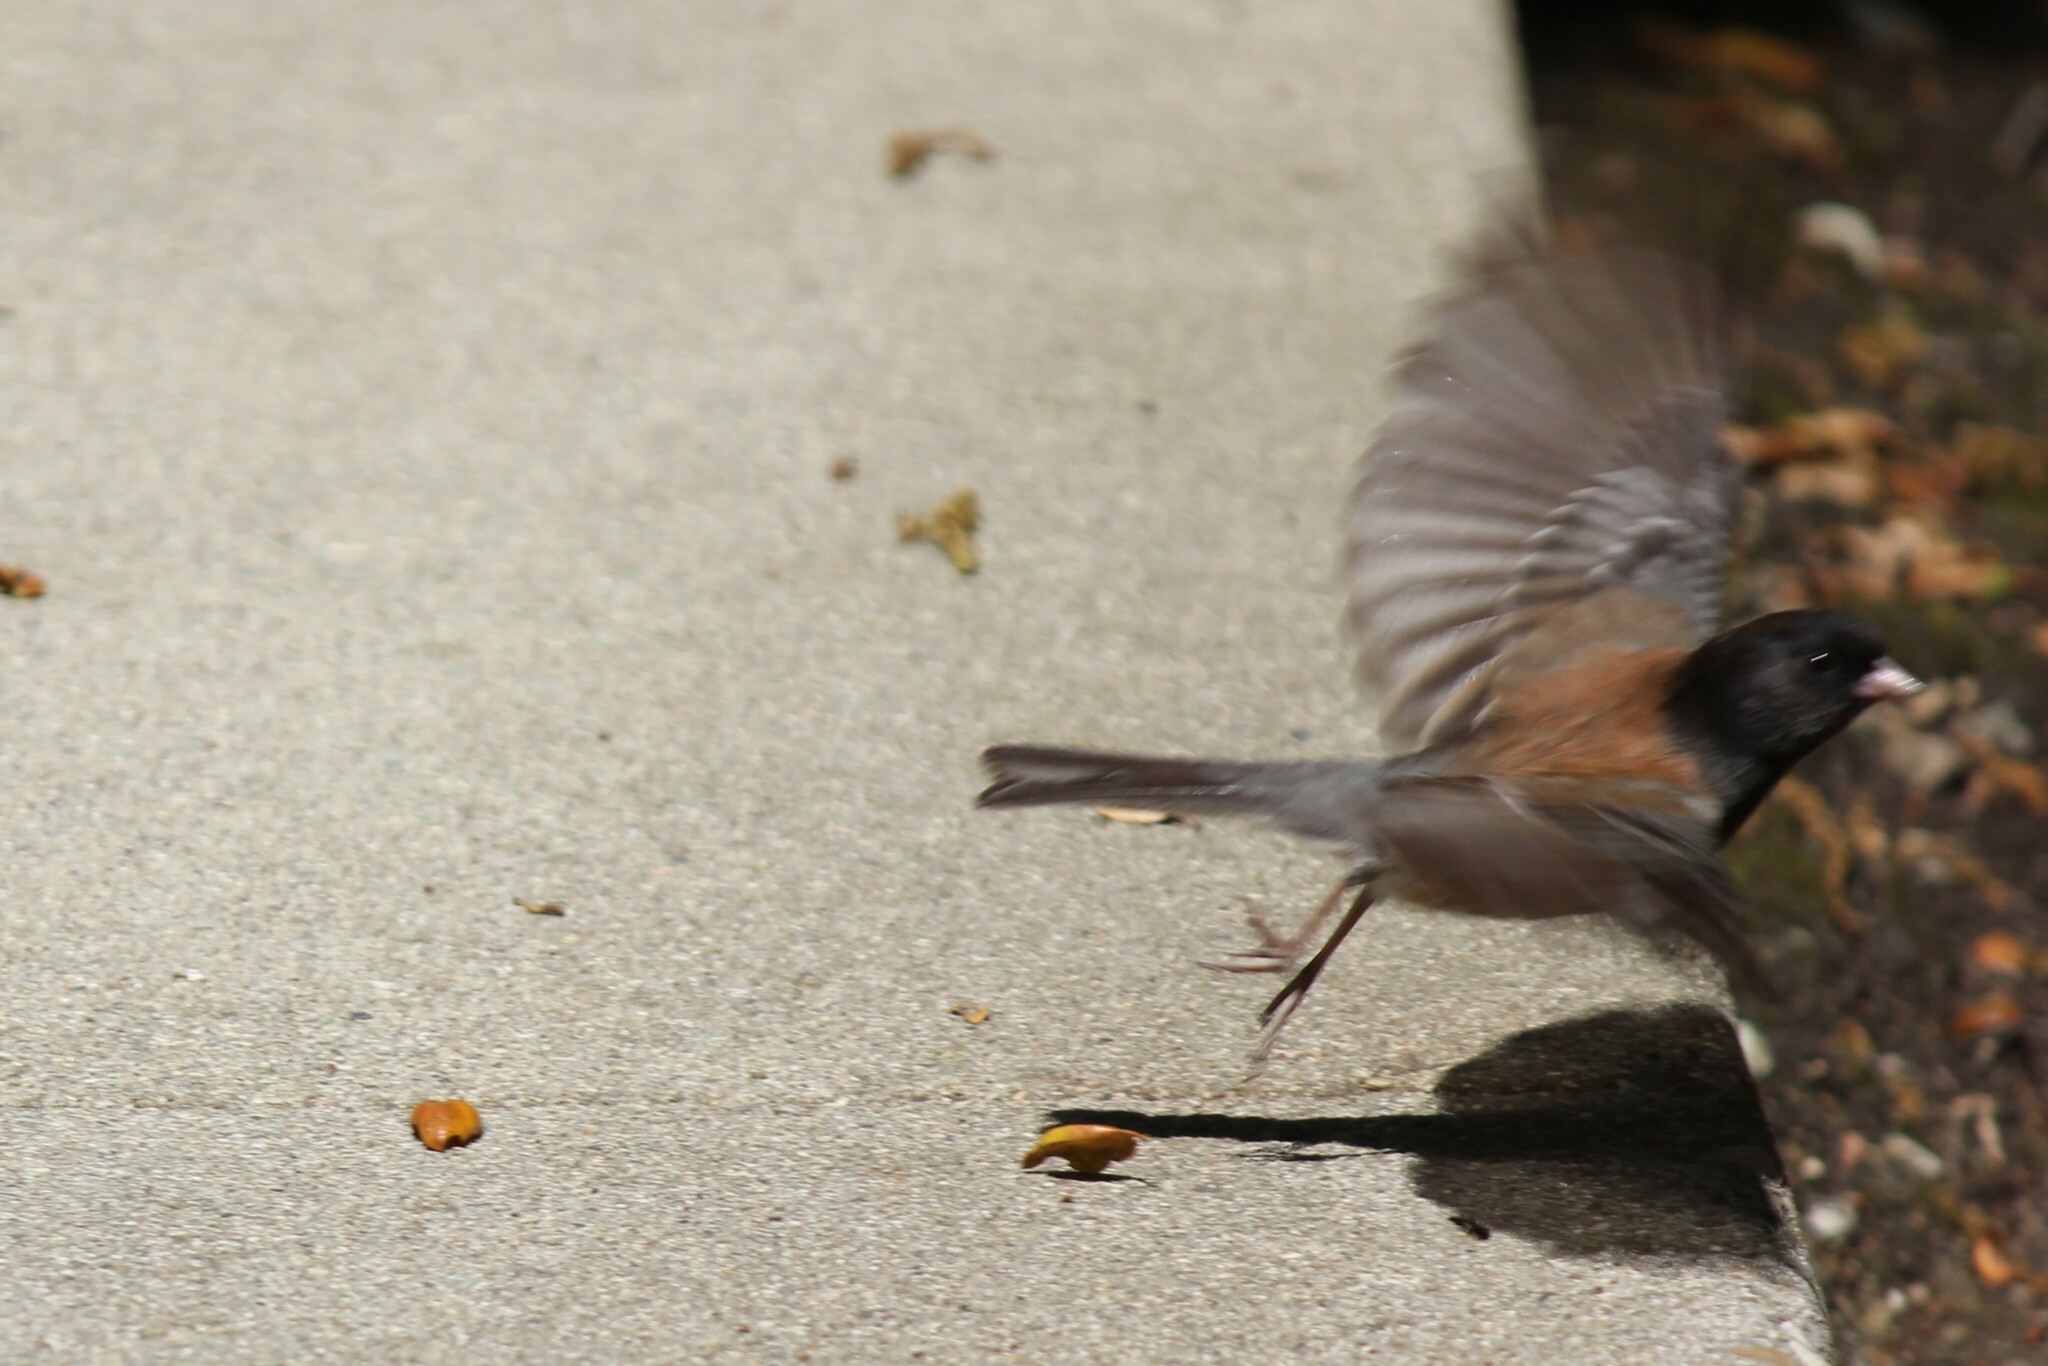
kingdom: Animalia
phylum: Chordata
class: Aves
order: Passeriformes
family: Passerellidae
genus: Junco
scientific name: Junco hyemalis
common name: Dark-eyed junco
